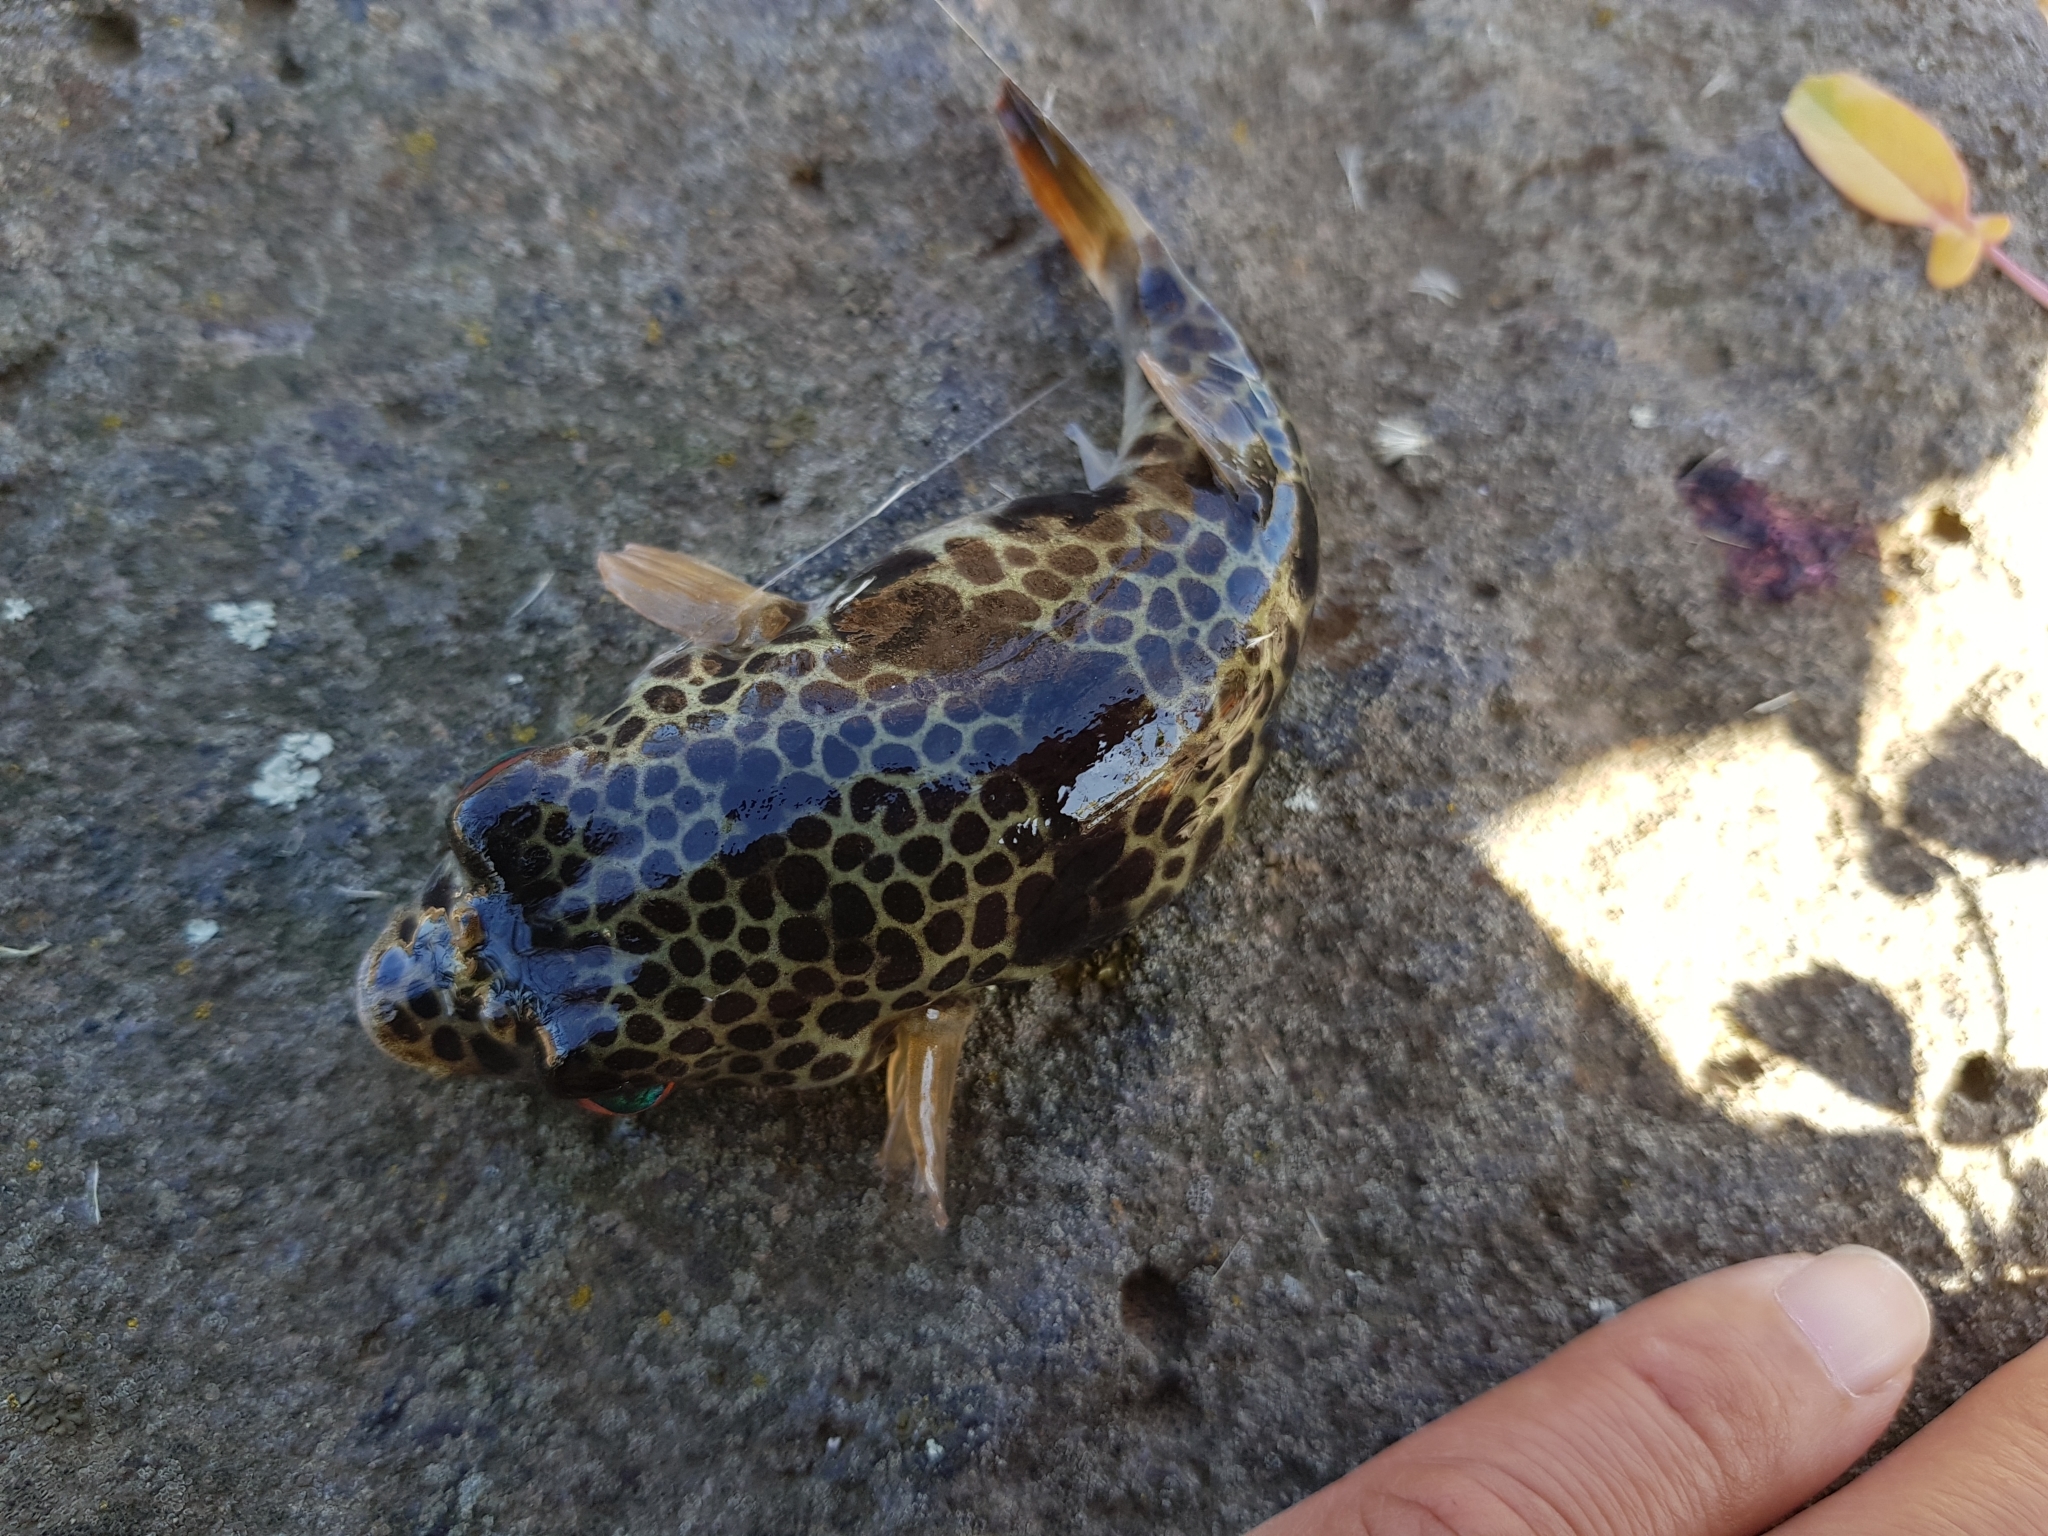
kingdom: Animalia
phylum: Chordata
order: Tetraodontiformes
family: Tetraodontidae
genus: Tetractenos
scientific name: Tetractenos glaber
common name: Smooth toadfish
